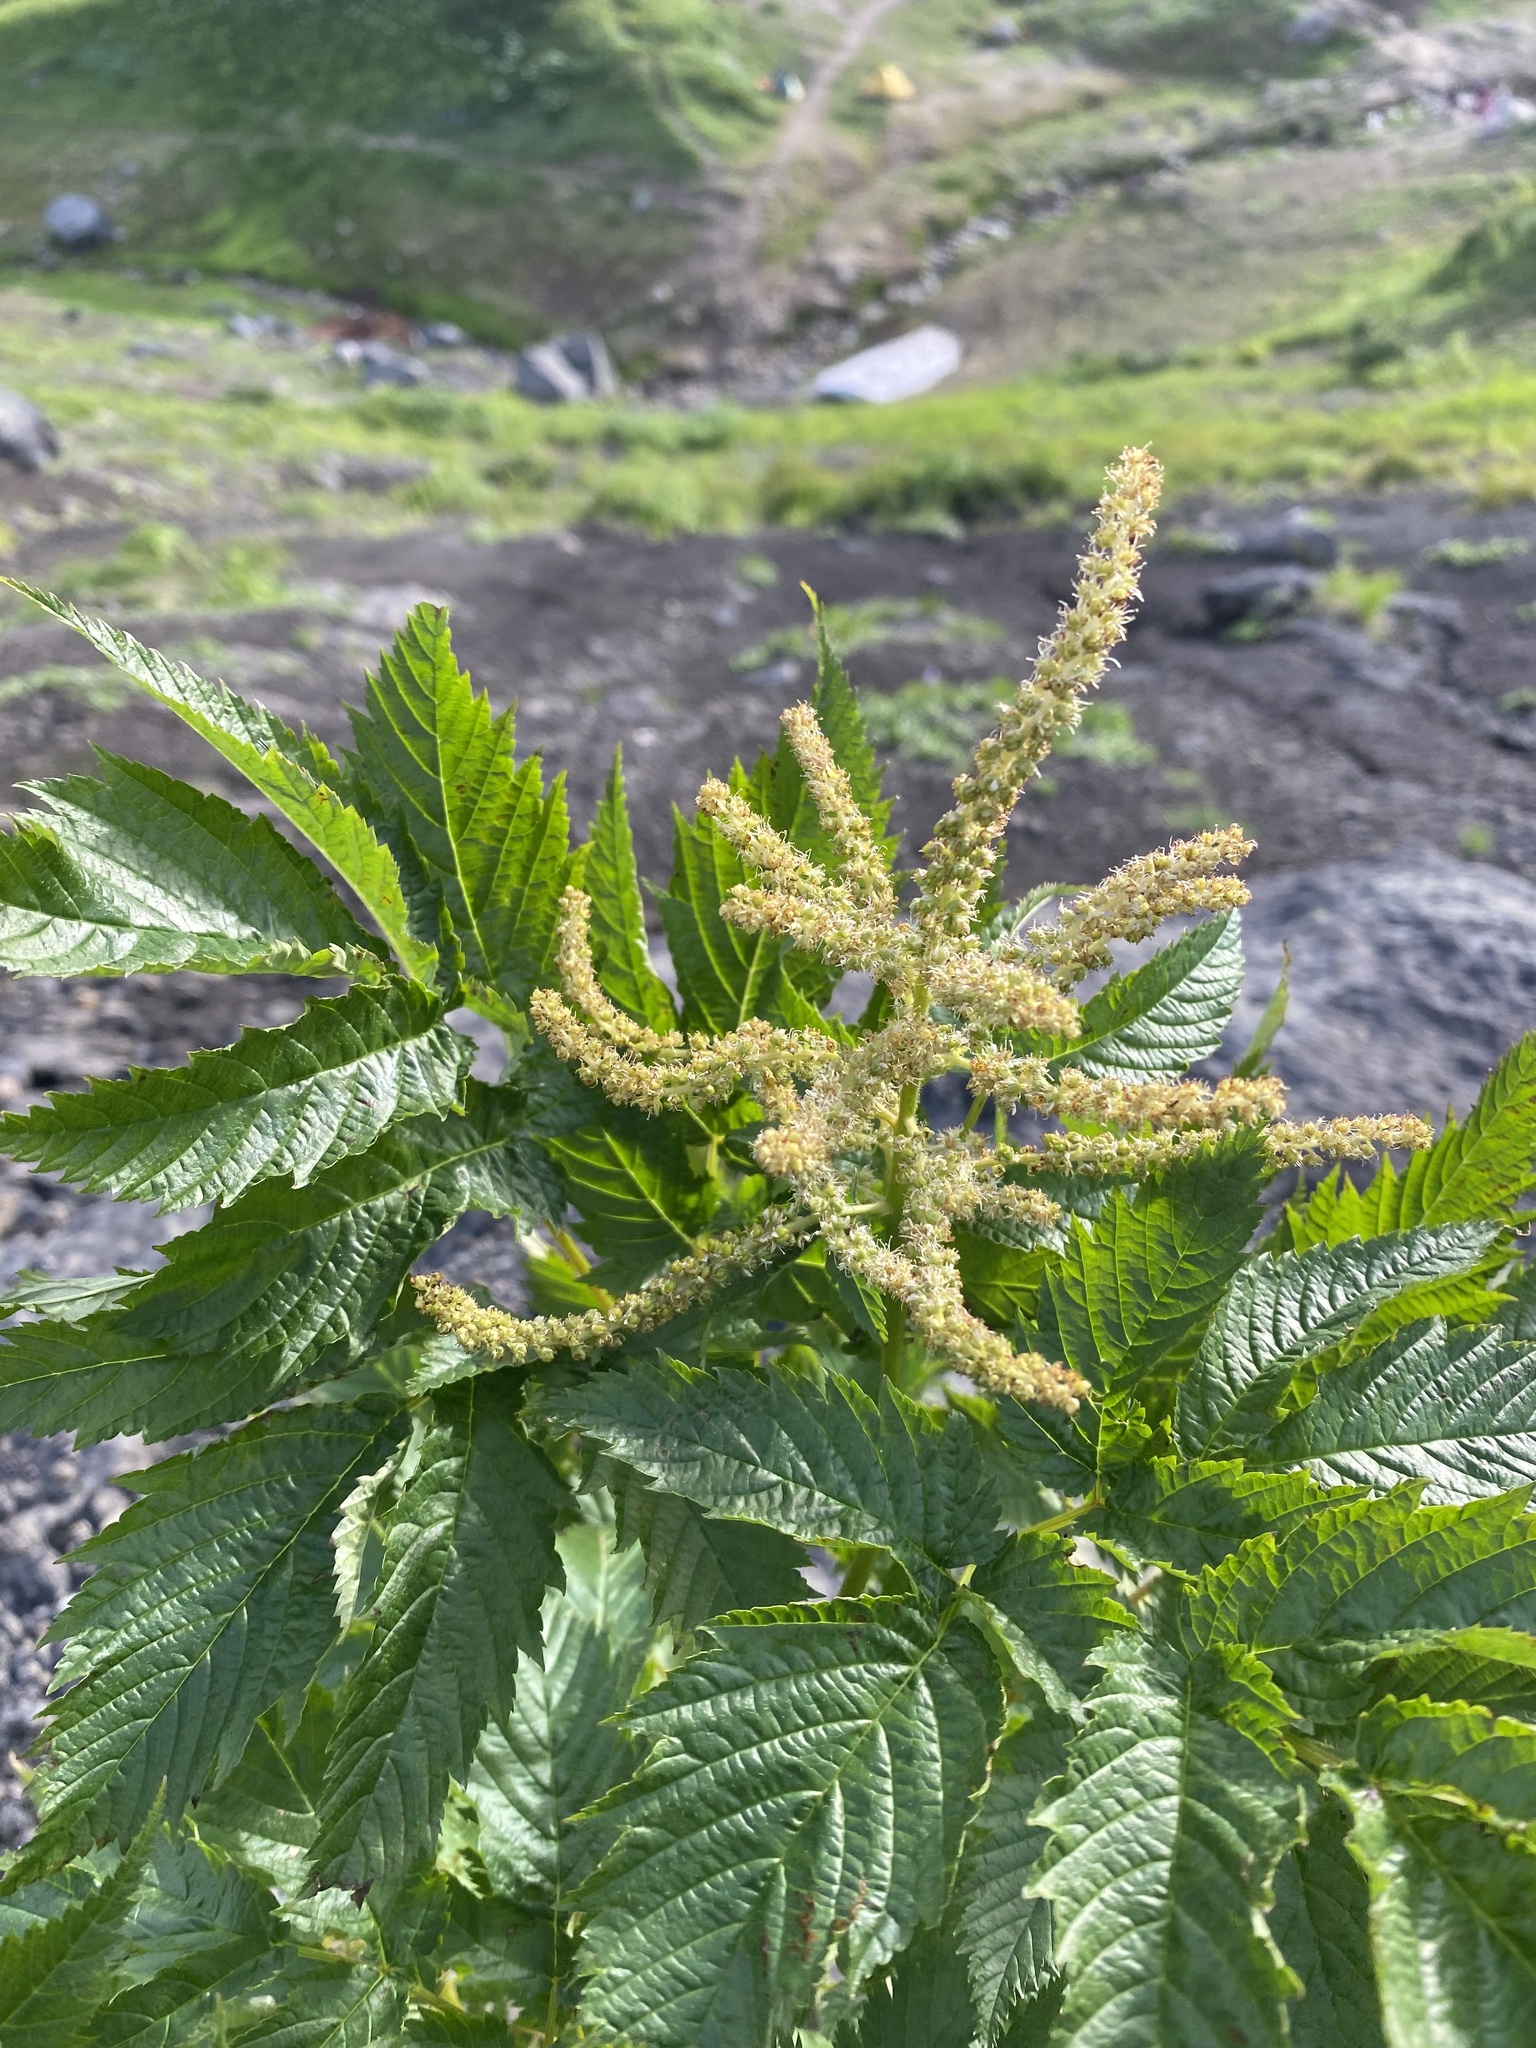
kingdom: Plantae
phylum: Tracheophyta
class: Magnoliopsida
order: Rosales
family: Rosaceae
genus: Aruncus
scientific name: Aruncus dioicus
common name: Buck's-beard
